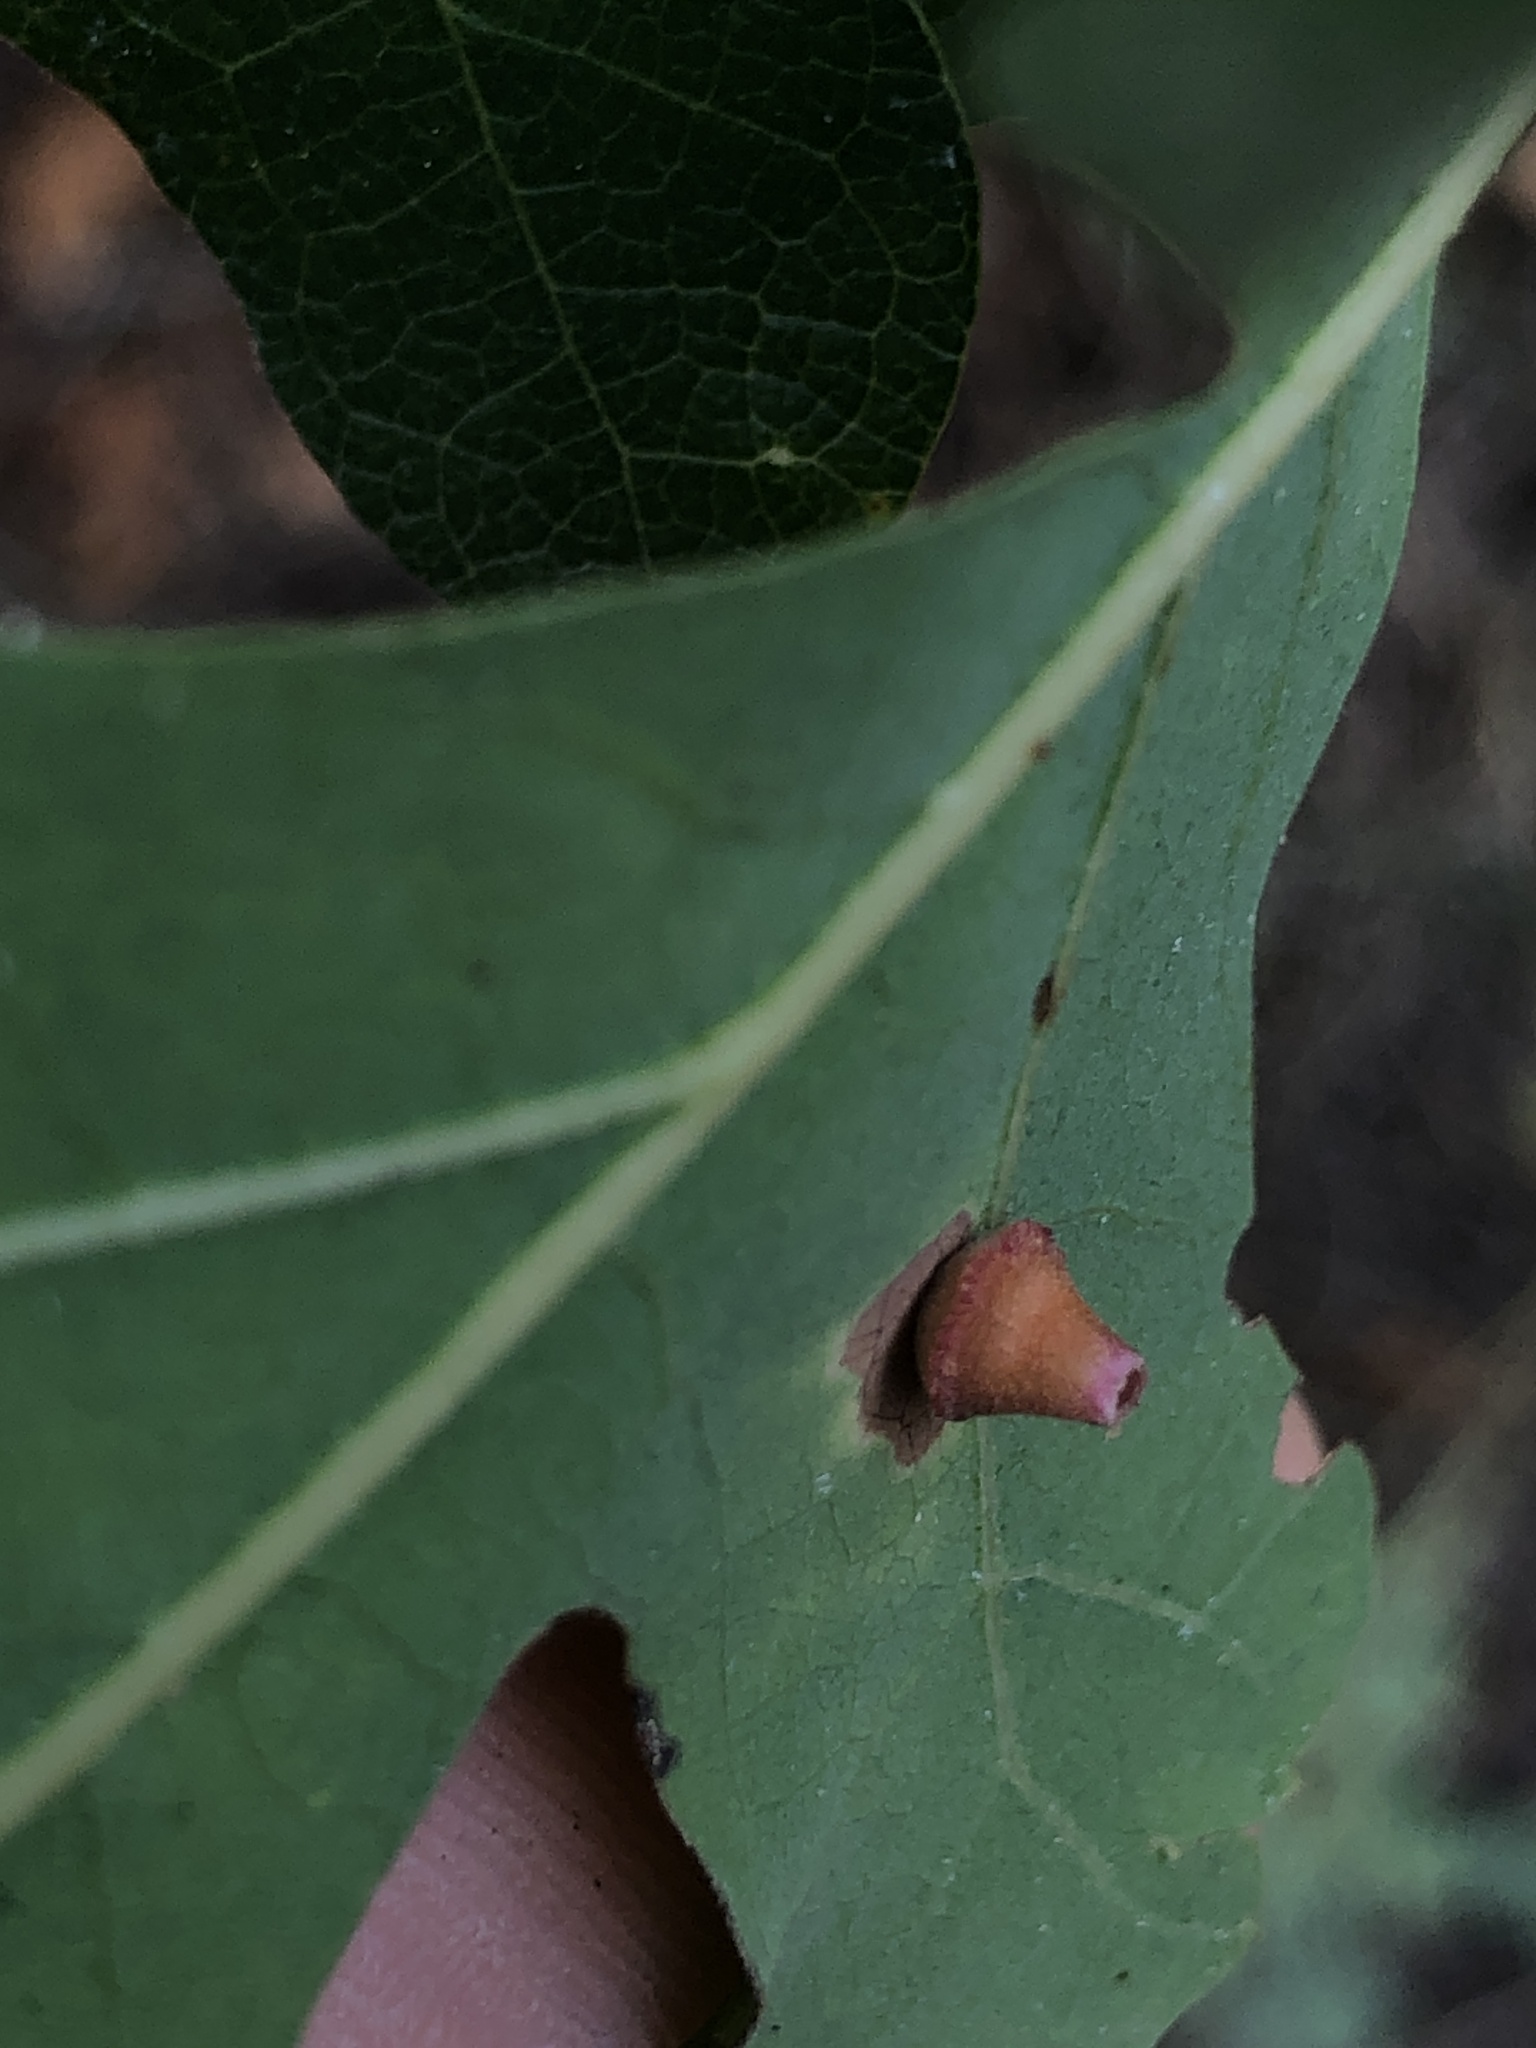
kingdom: Animalia
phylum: Arthropoda
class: Insecta
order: Hymenoptera
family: Cynipidae
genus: Andricus
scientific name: Andricus
